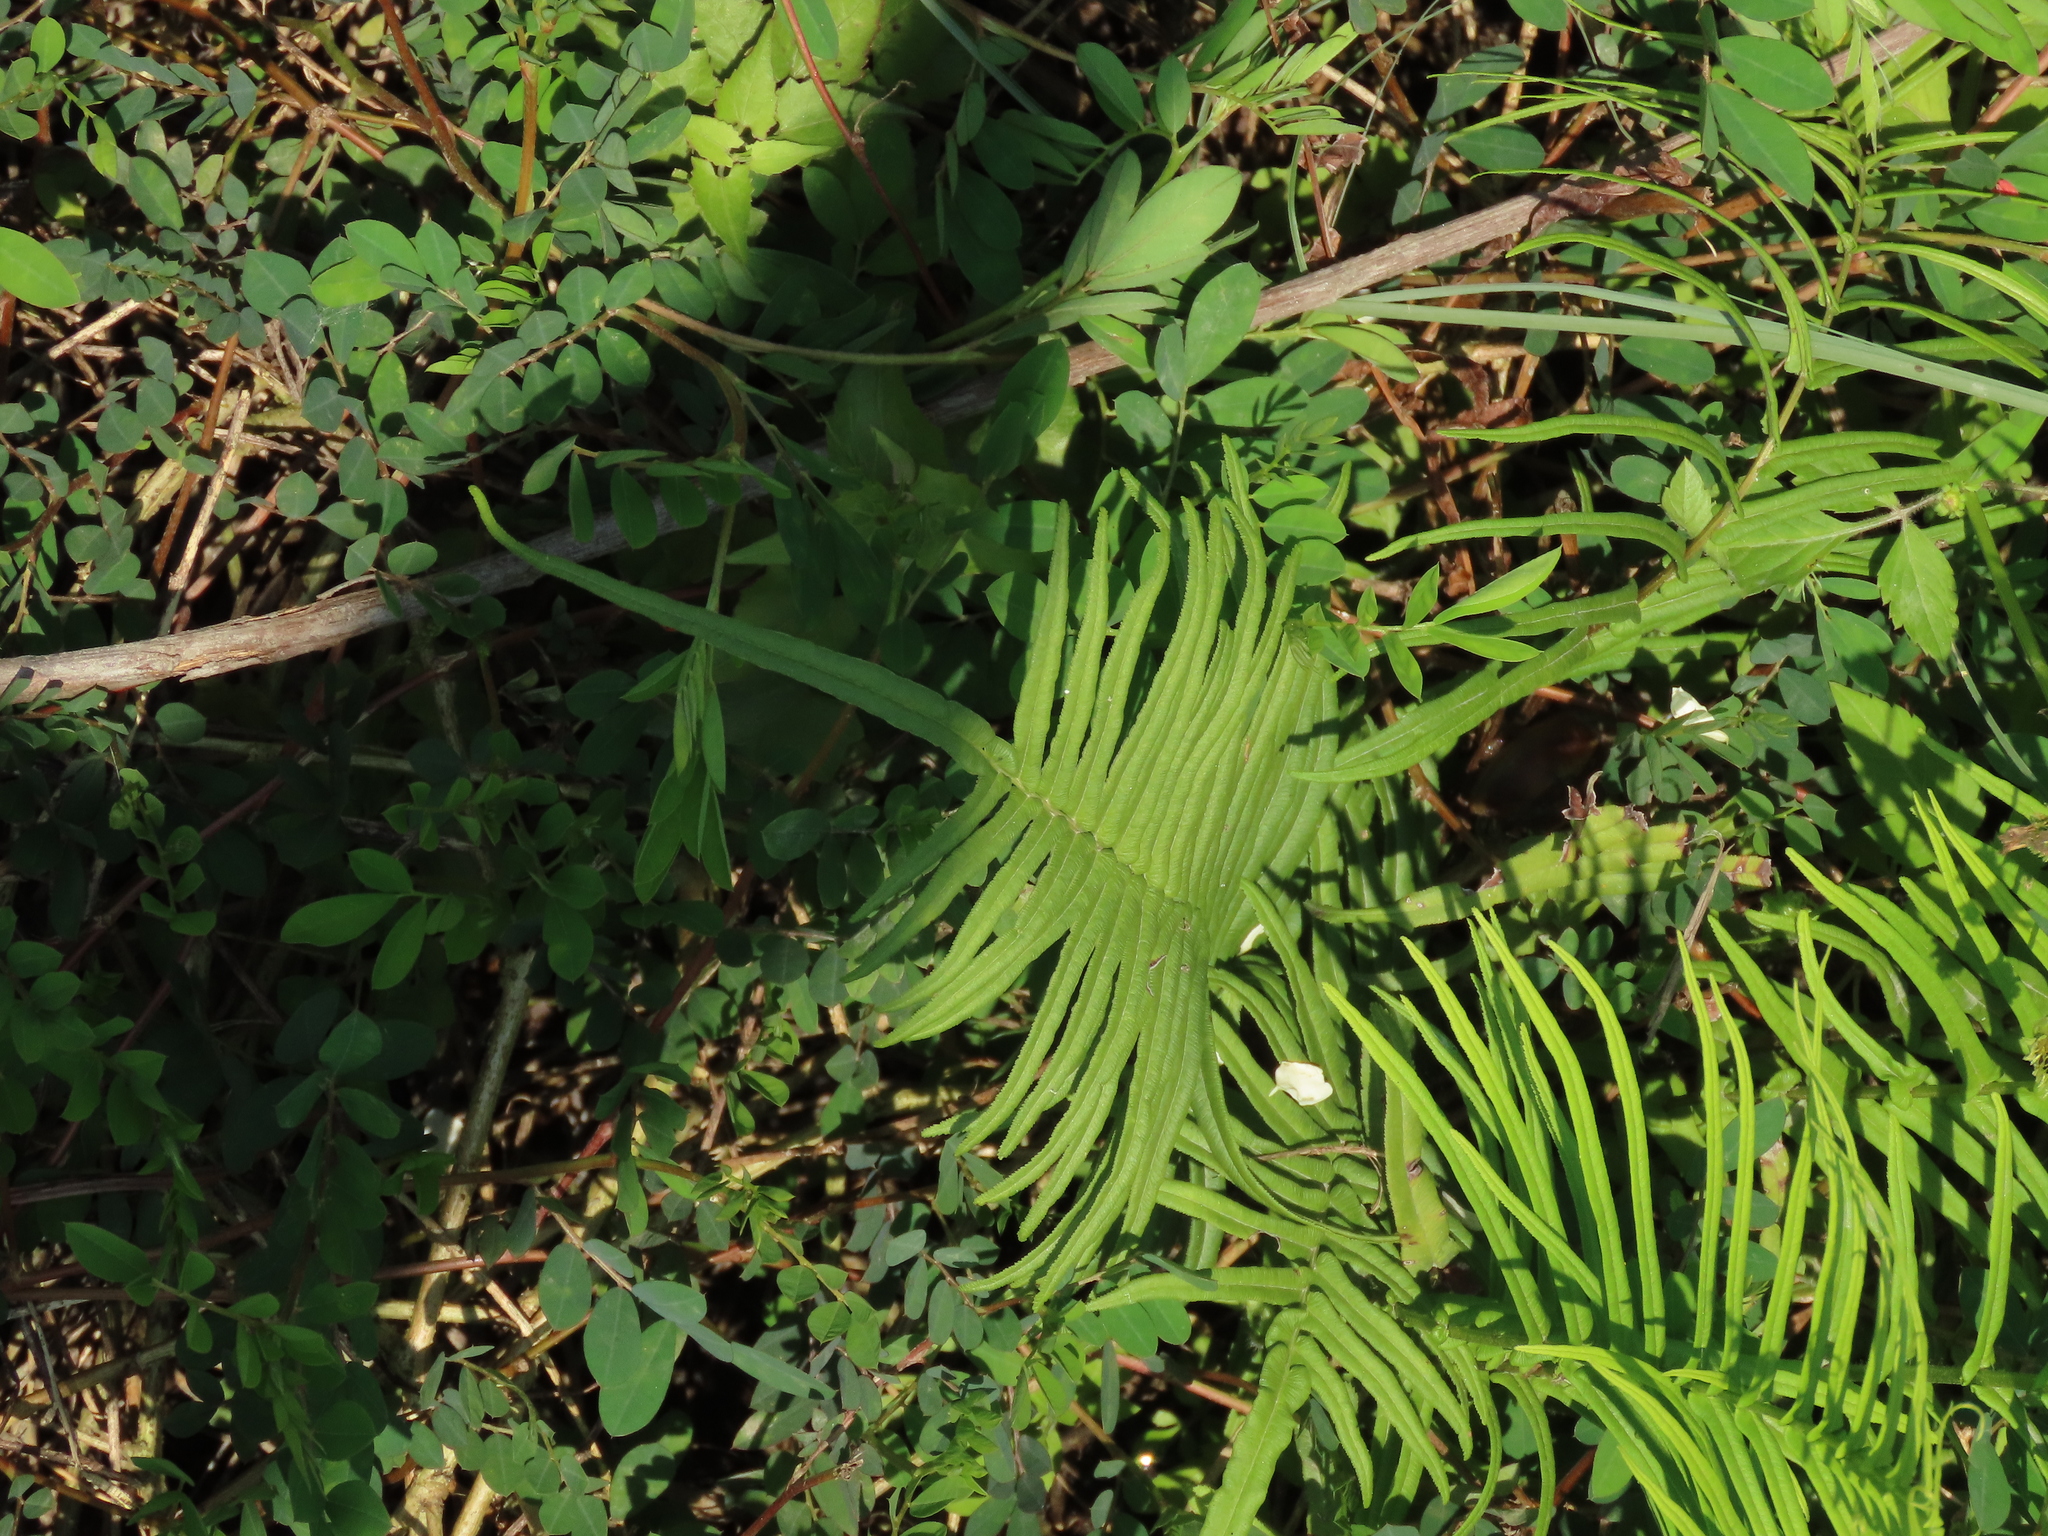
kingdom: Plantae
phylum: Tracheophyta
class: Polypodiopsida
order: Polypodiales
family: Pteridaceae
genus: Pteris
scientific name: Pteris vittata
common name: Ladder brake
